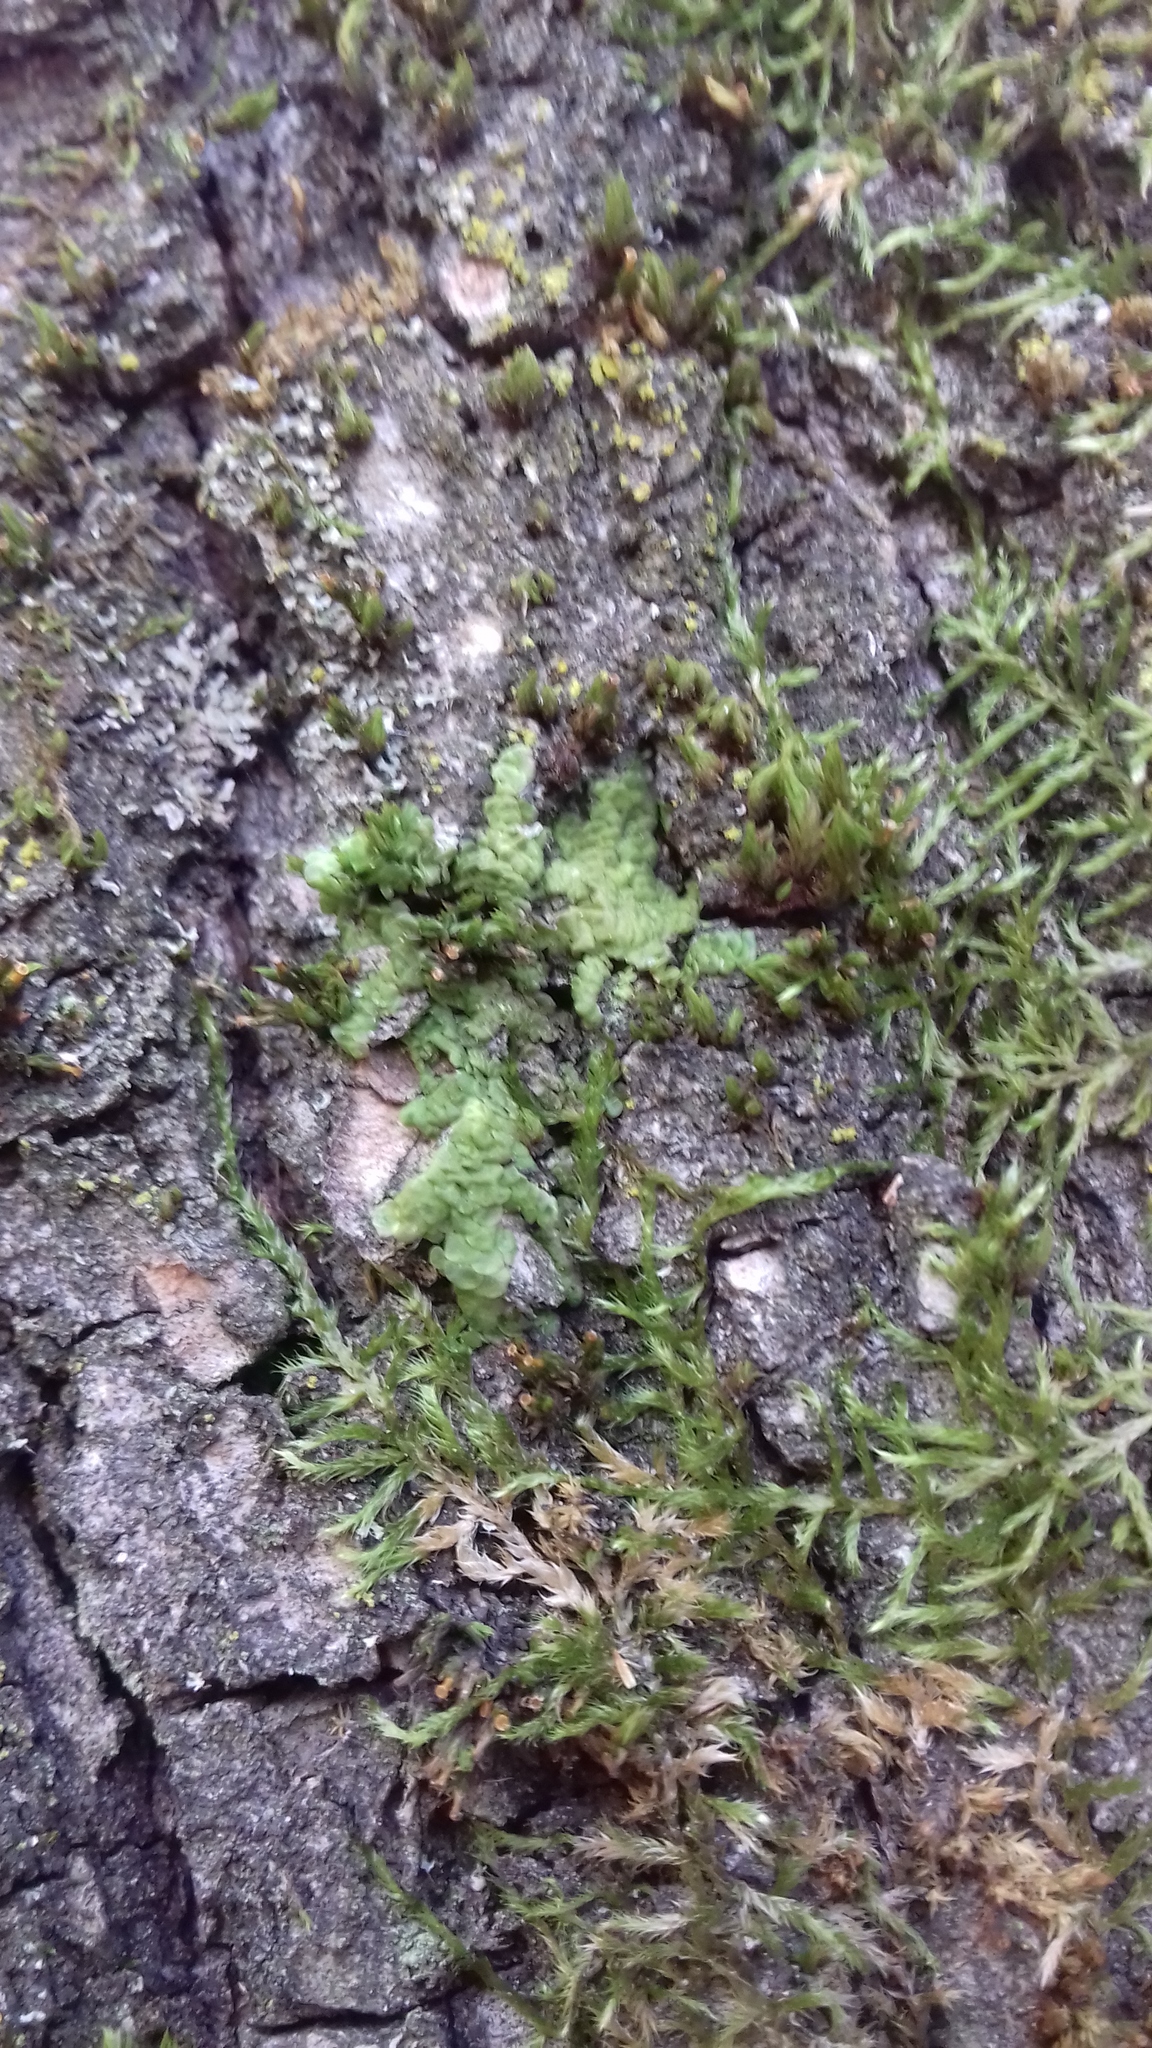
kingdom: Plantae
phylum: Marchantiophyta
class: Jungermanniopsida
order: Porellales
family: Radulaceae
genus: Radula
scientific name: Radula complanata
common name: Flat-leaved scalewort
